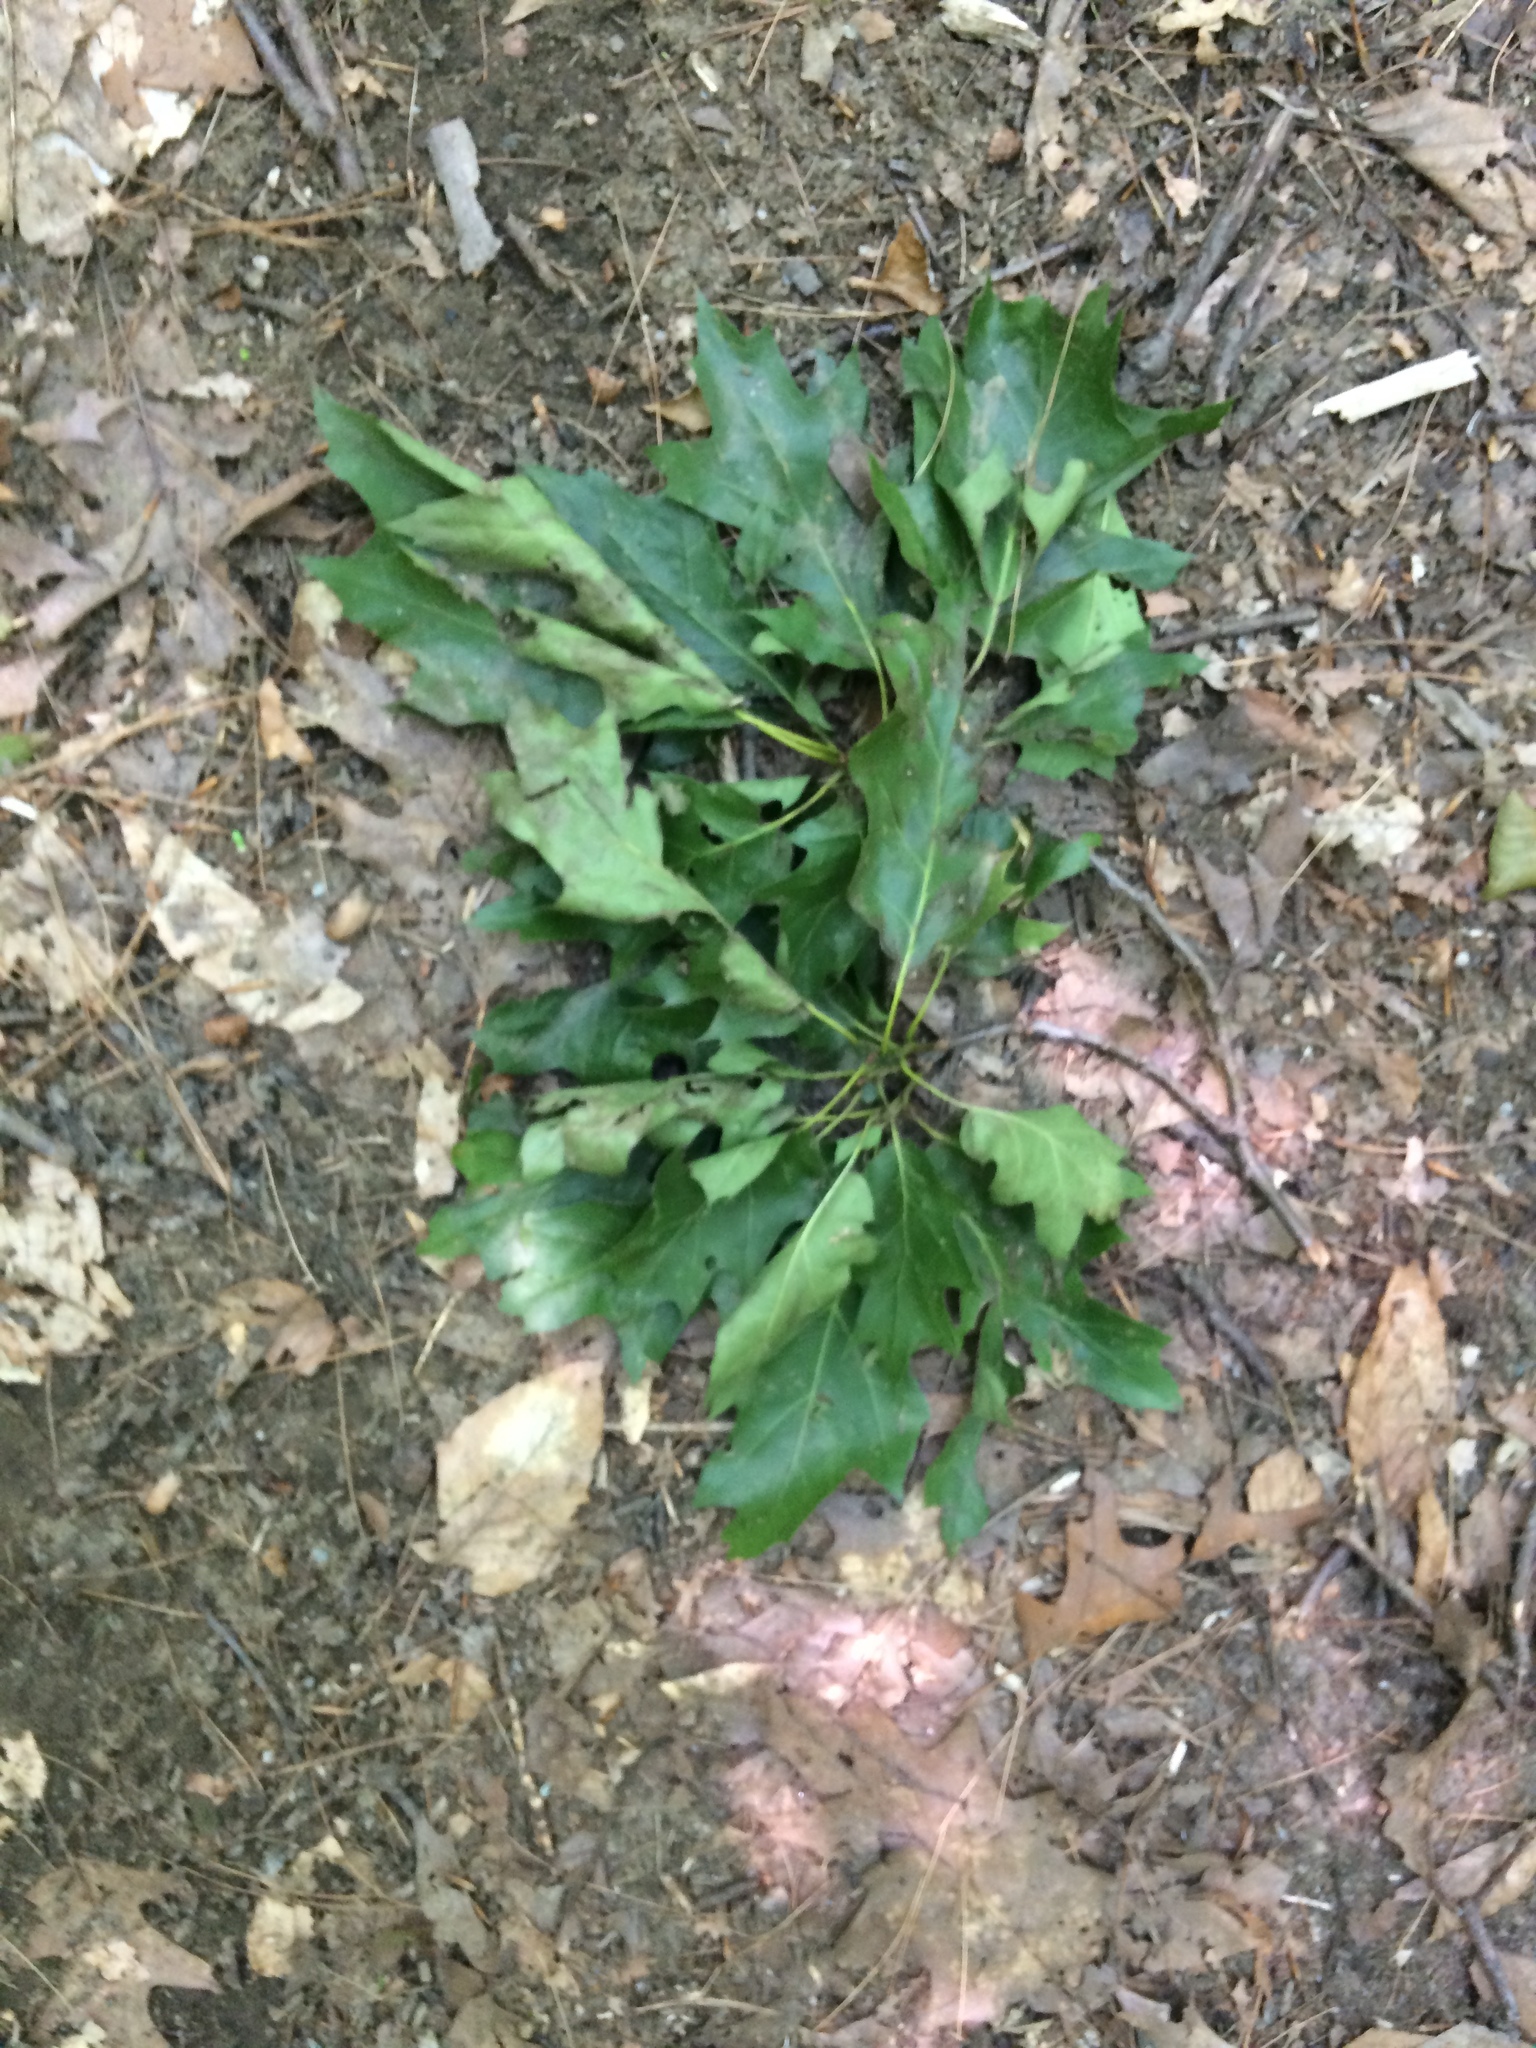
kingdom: Plantae
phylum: Tracheophyta
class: Magnoliopsida
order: Fagales
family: Fagaceae
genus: Quercus
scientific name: Quercus rubra
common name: Red oak
